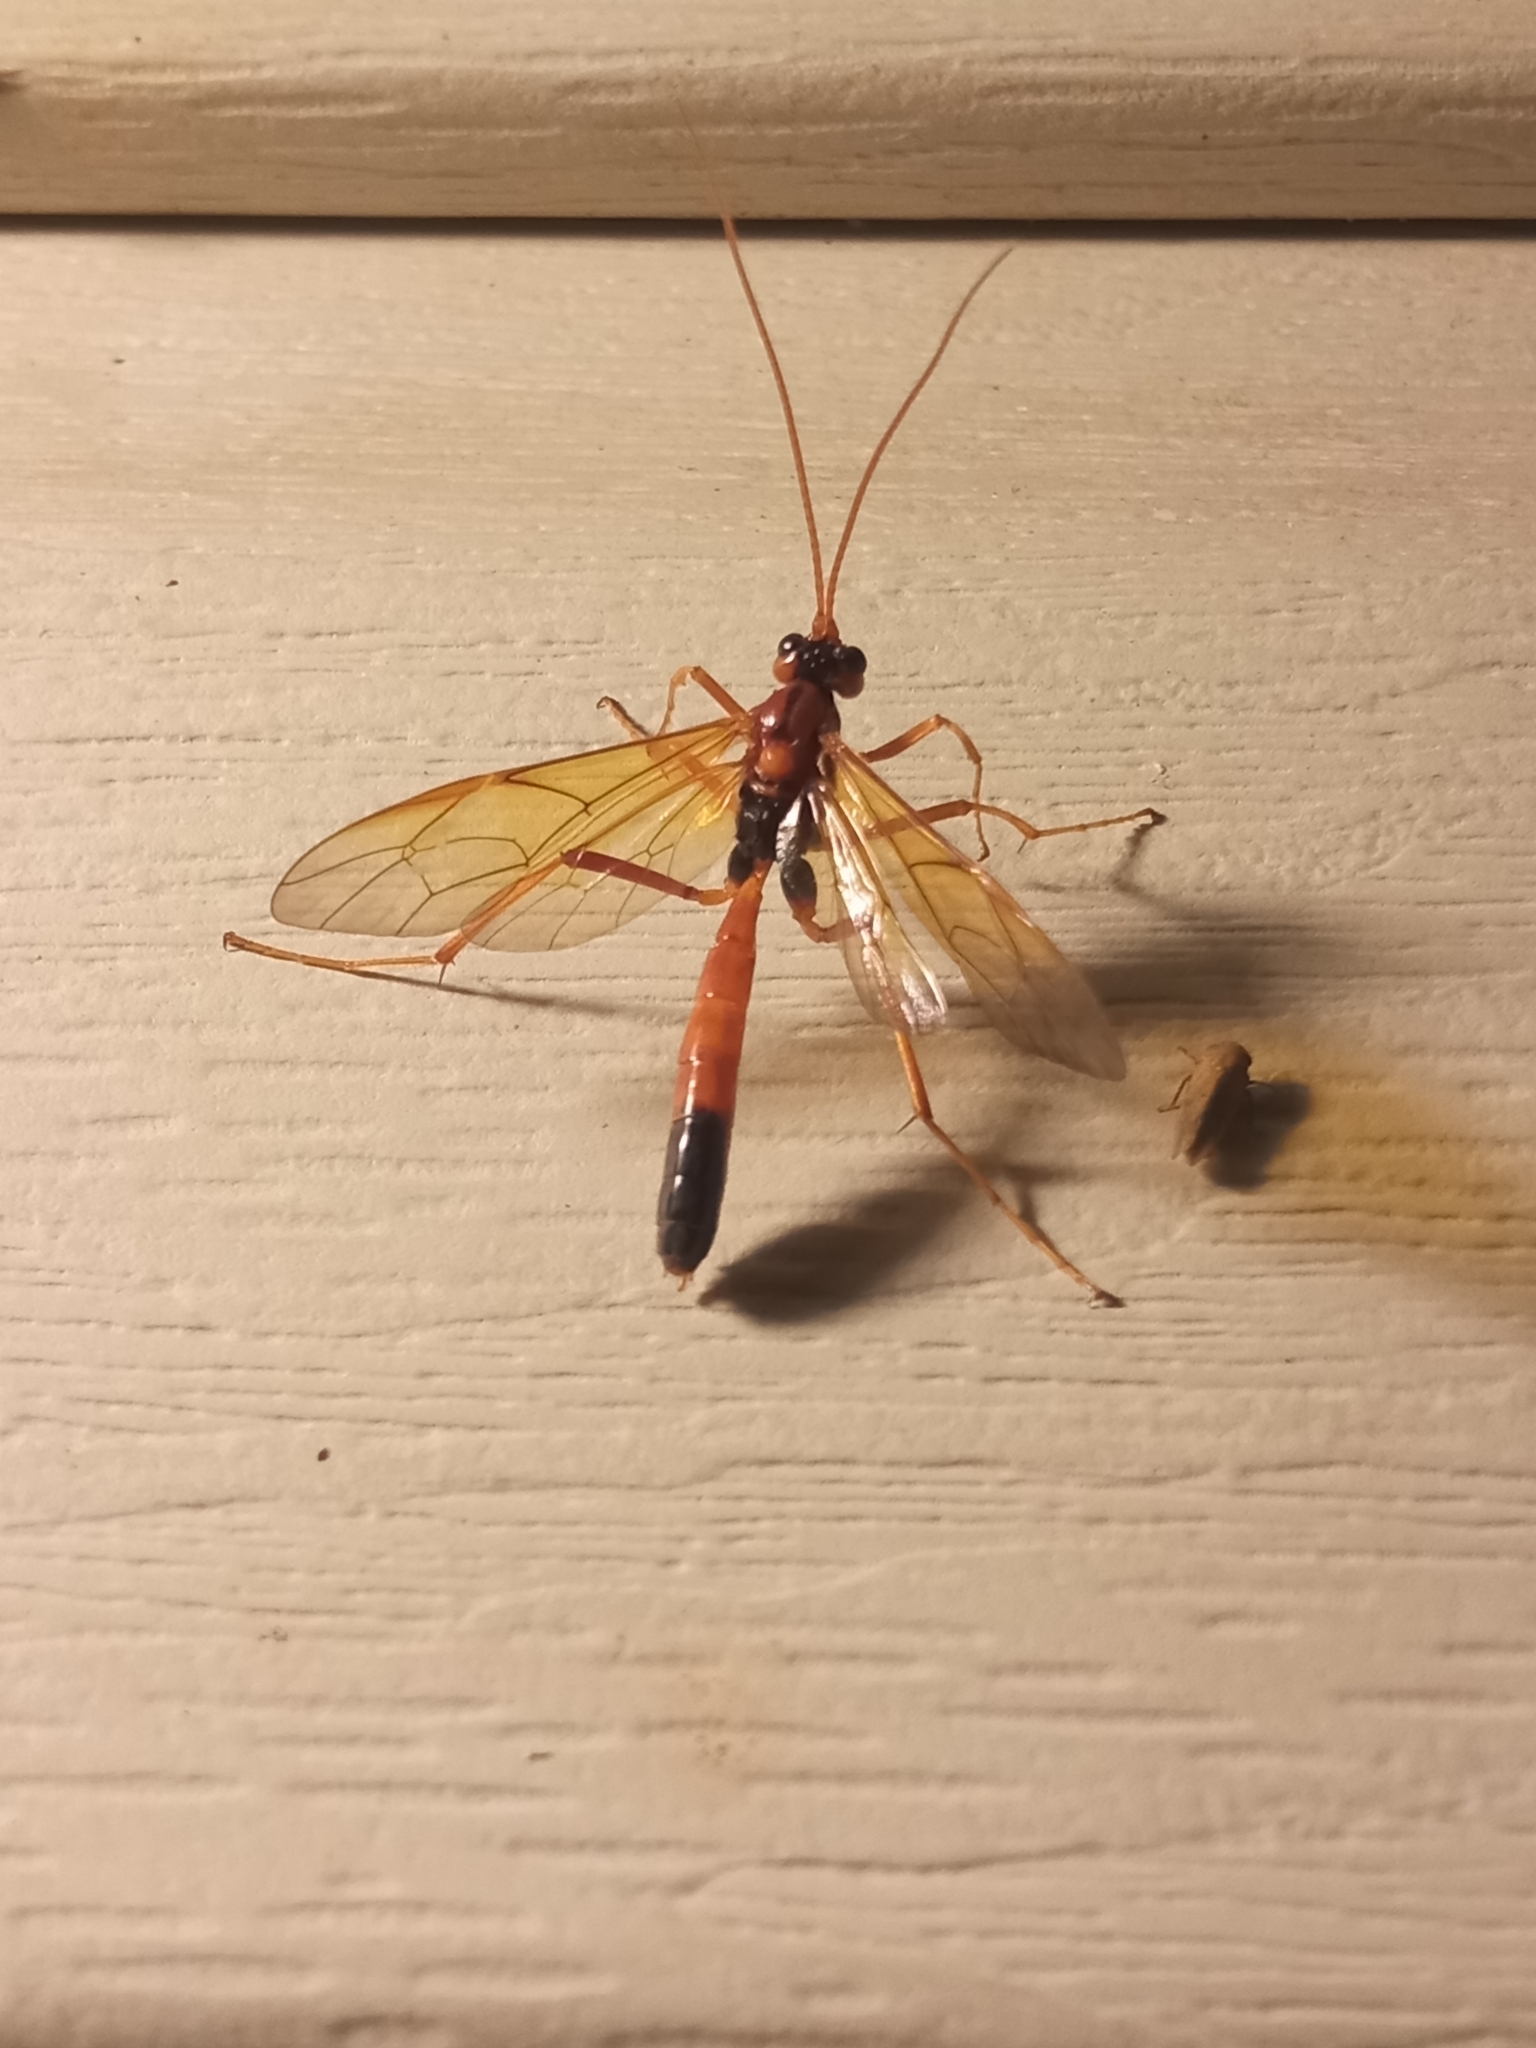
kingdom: Animalia
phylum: Arthropoda
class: Insecta
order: Hymenoptera
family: Ichneumonidae
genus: Opheltes
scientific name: Opheltes glaucopterus
